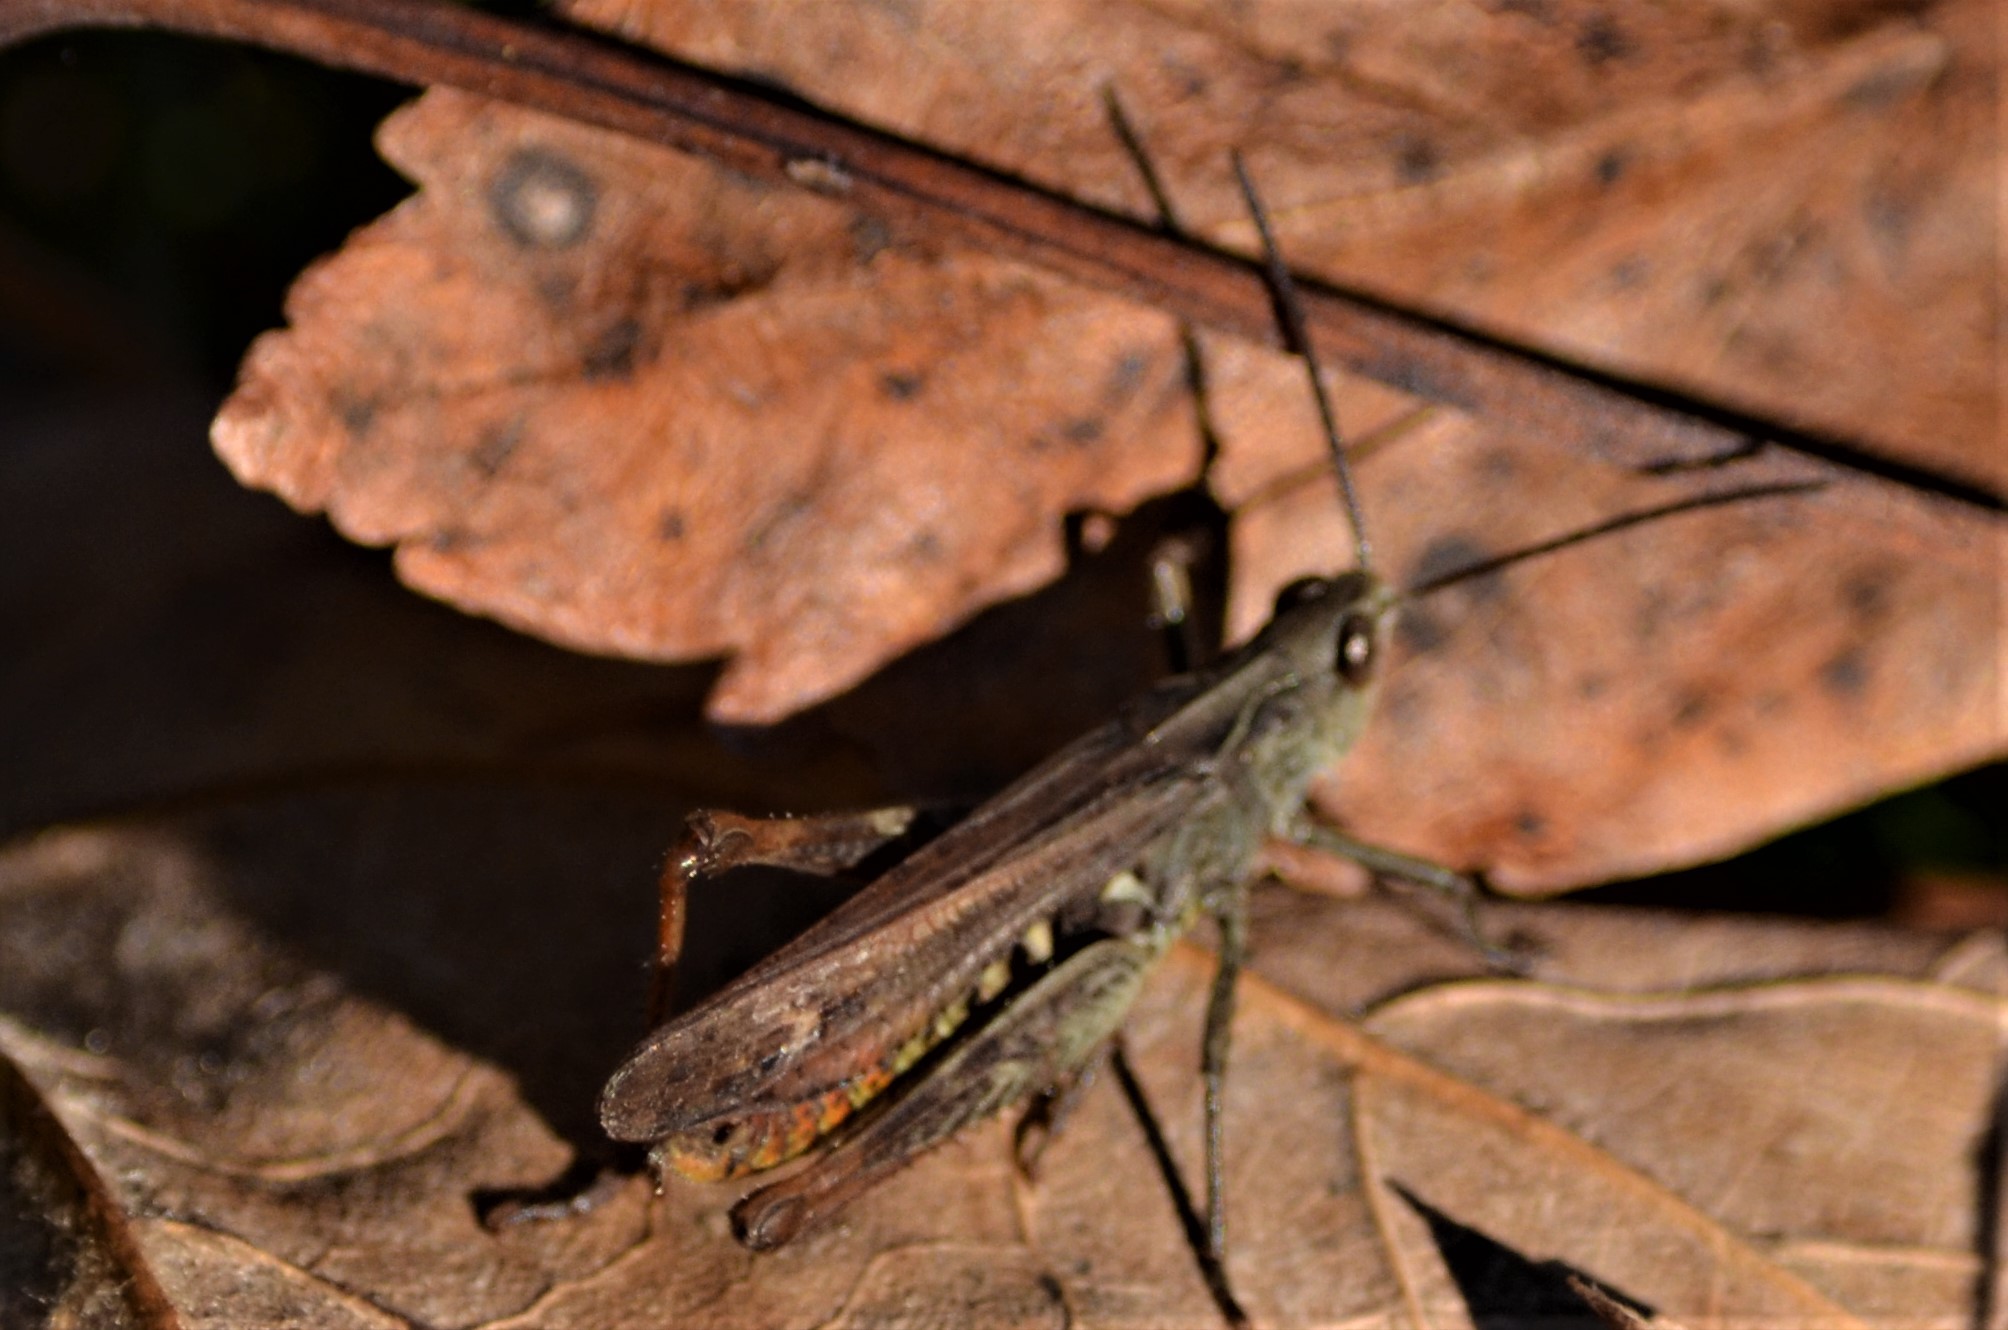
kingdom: Animalia
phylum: Arthropoda
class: Insecta
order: Orthoptera
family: Acrididae
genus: Chorthippus
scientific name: Chorthippus biguttulus
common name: Bow-winged grasshopper
